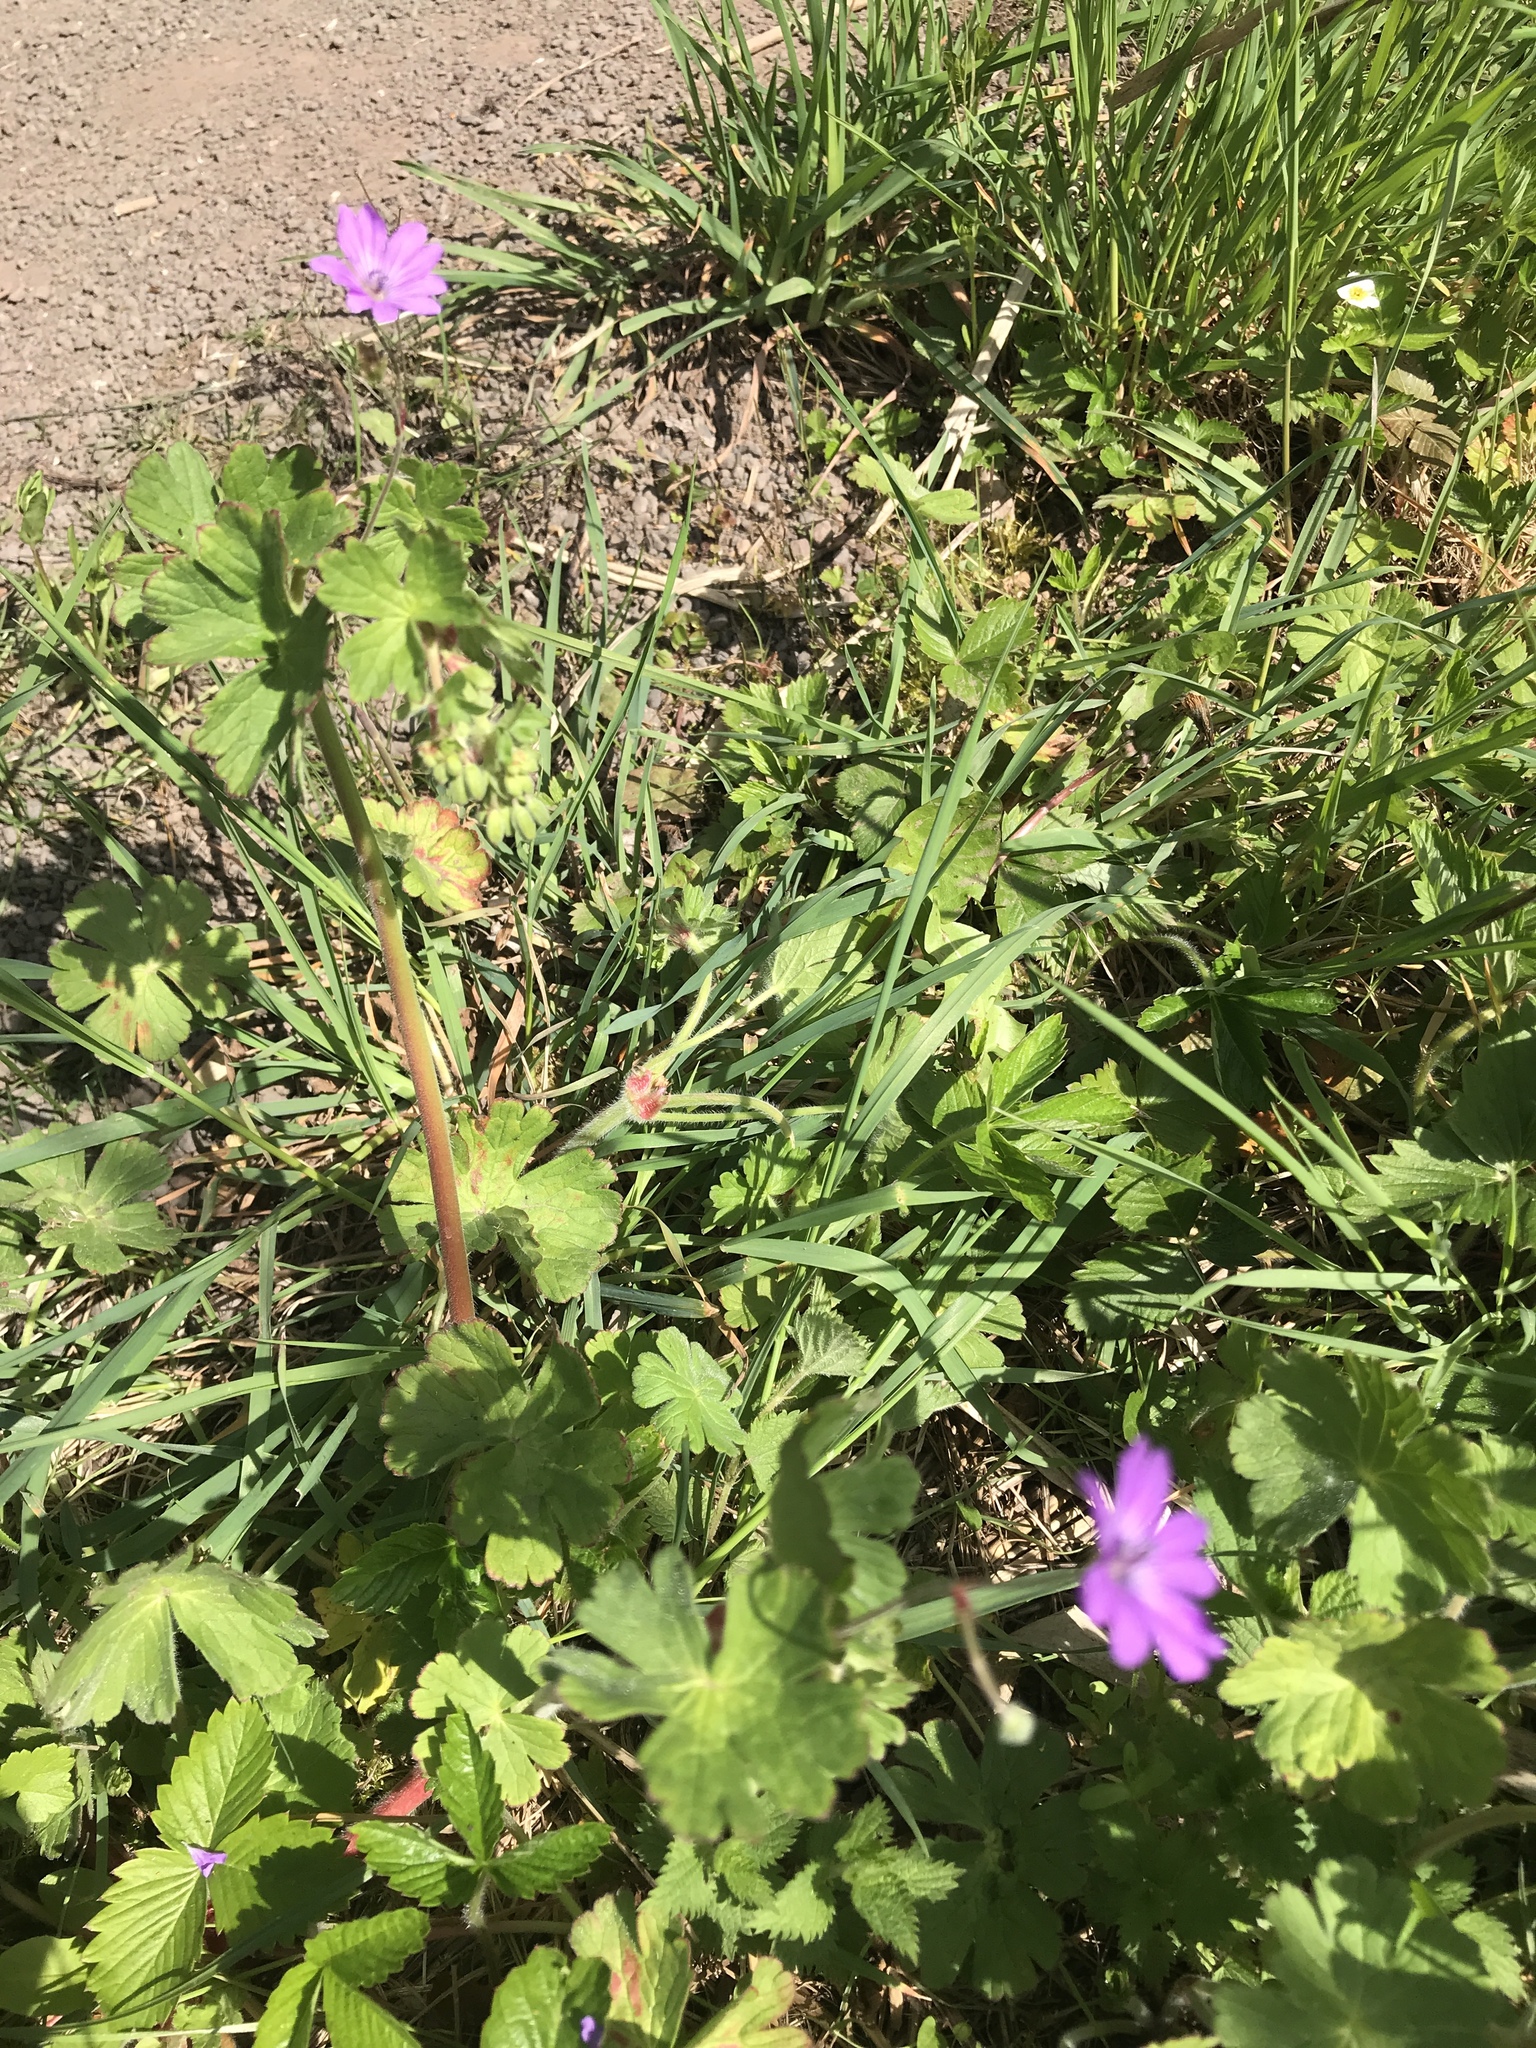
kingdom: Plantae
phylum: Tracheophyta
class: Magnoliopsida
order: Geraniales
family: Geraniaceae
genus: Geranium
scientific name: Geranium pyrenaicum
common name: Hedgerow crane's-bill
